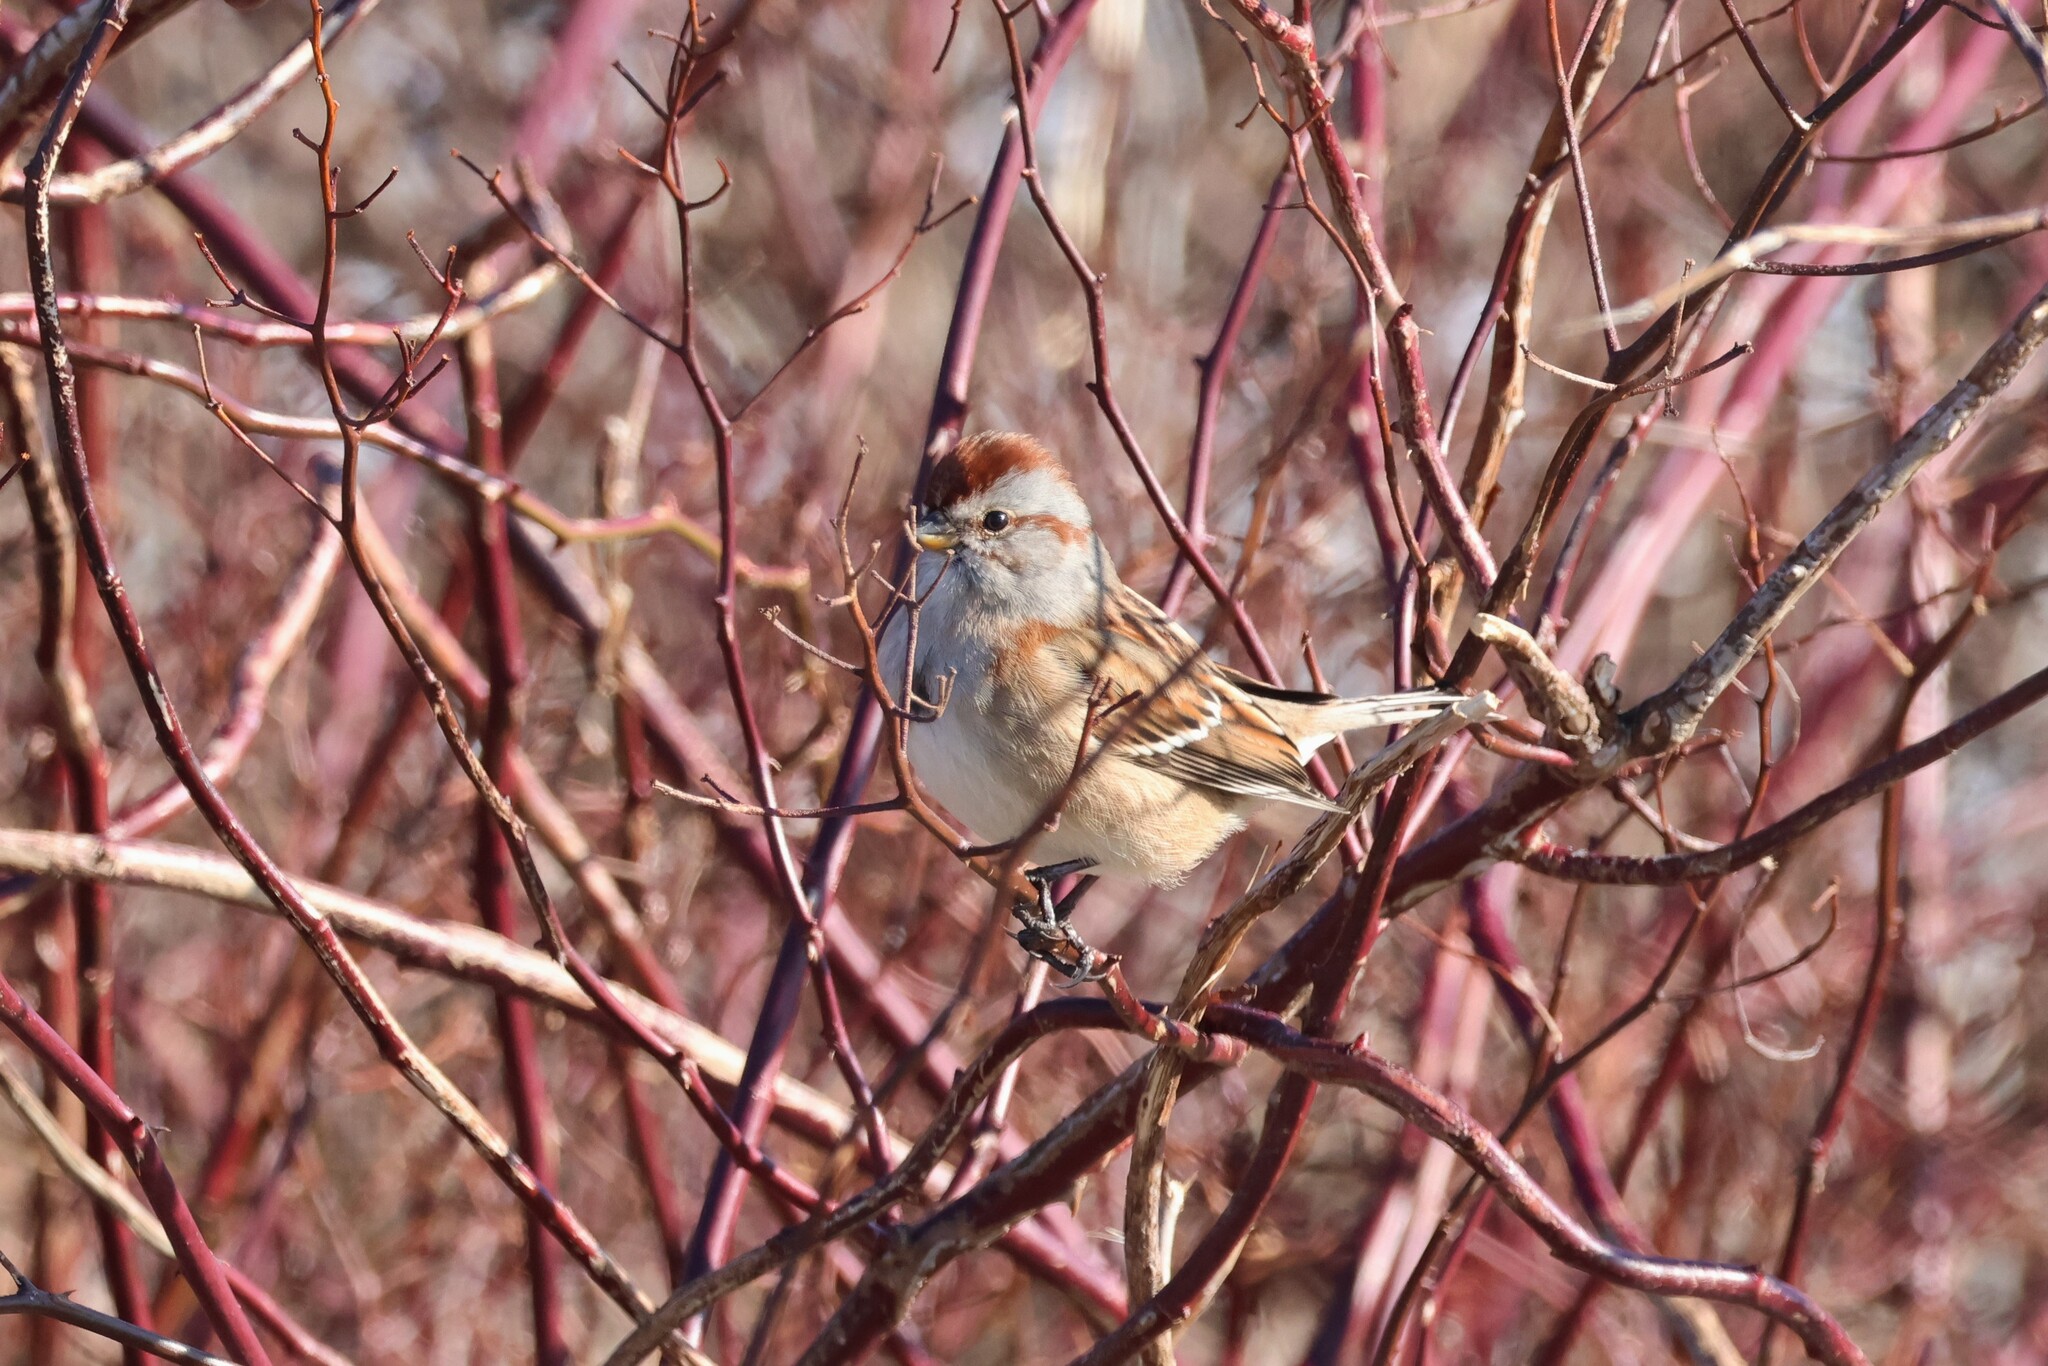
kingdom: Animalia
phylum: Chordata
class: Aves
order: Passeriformes
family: Passerellidae
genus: Spizelloides
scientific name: Spizelloides arborea
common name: American tree sparrow
